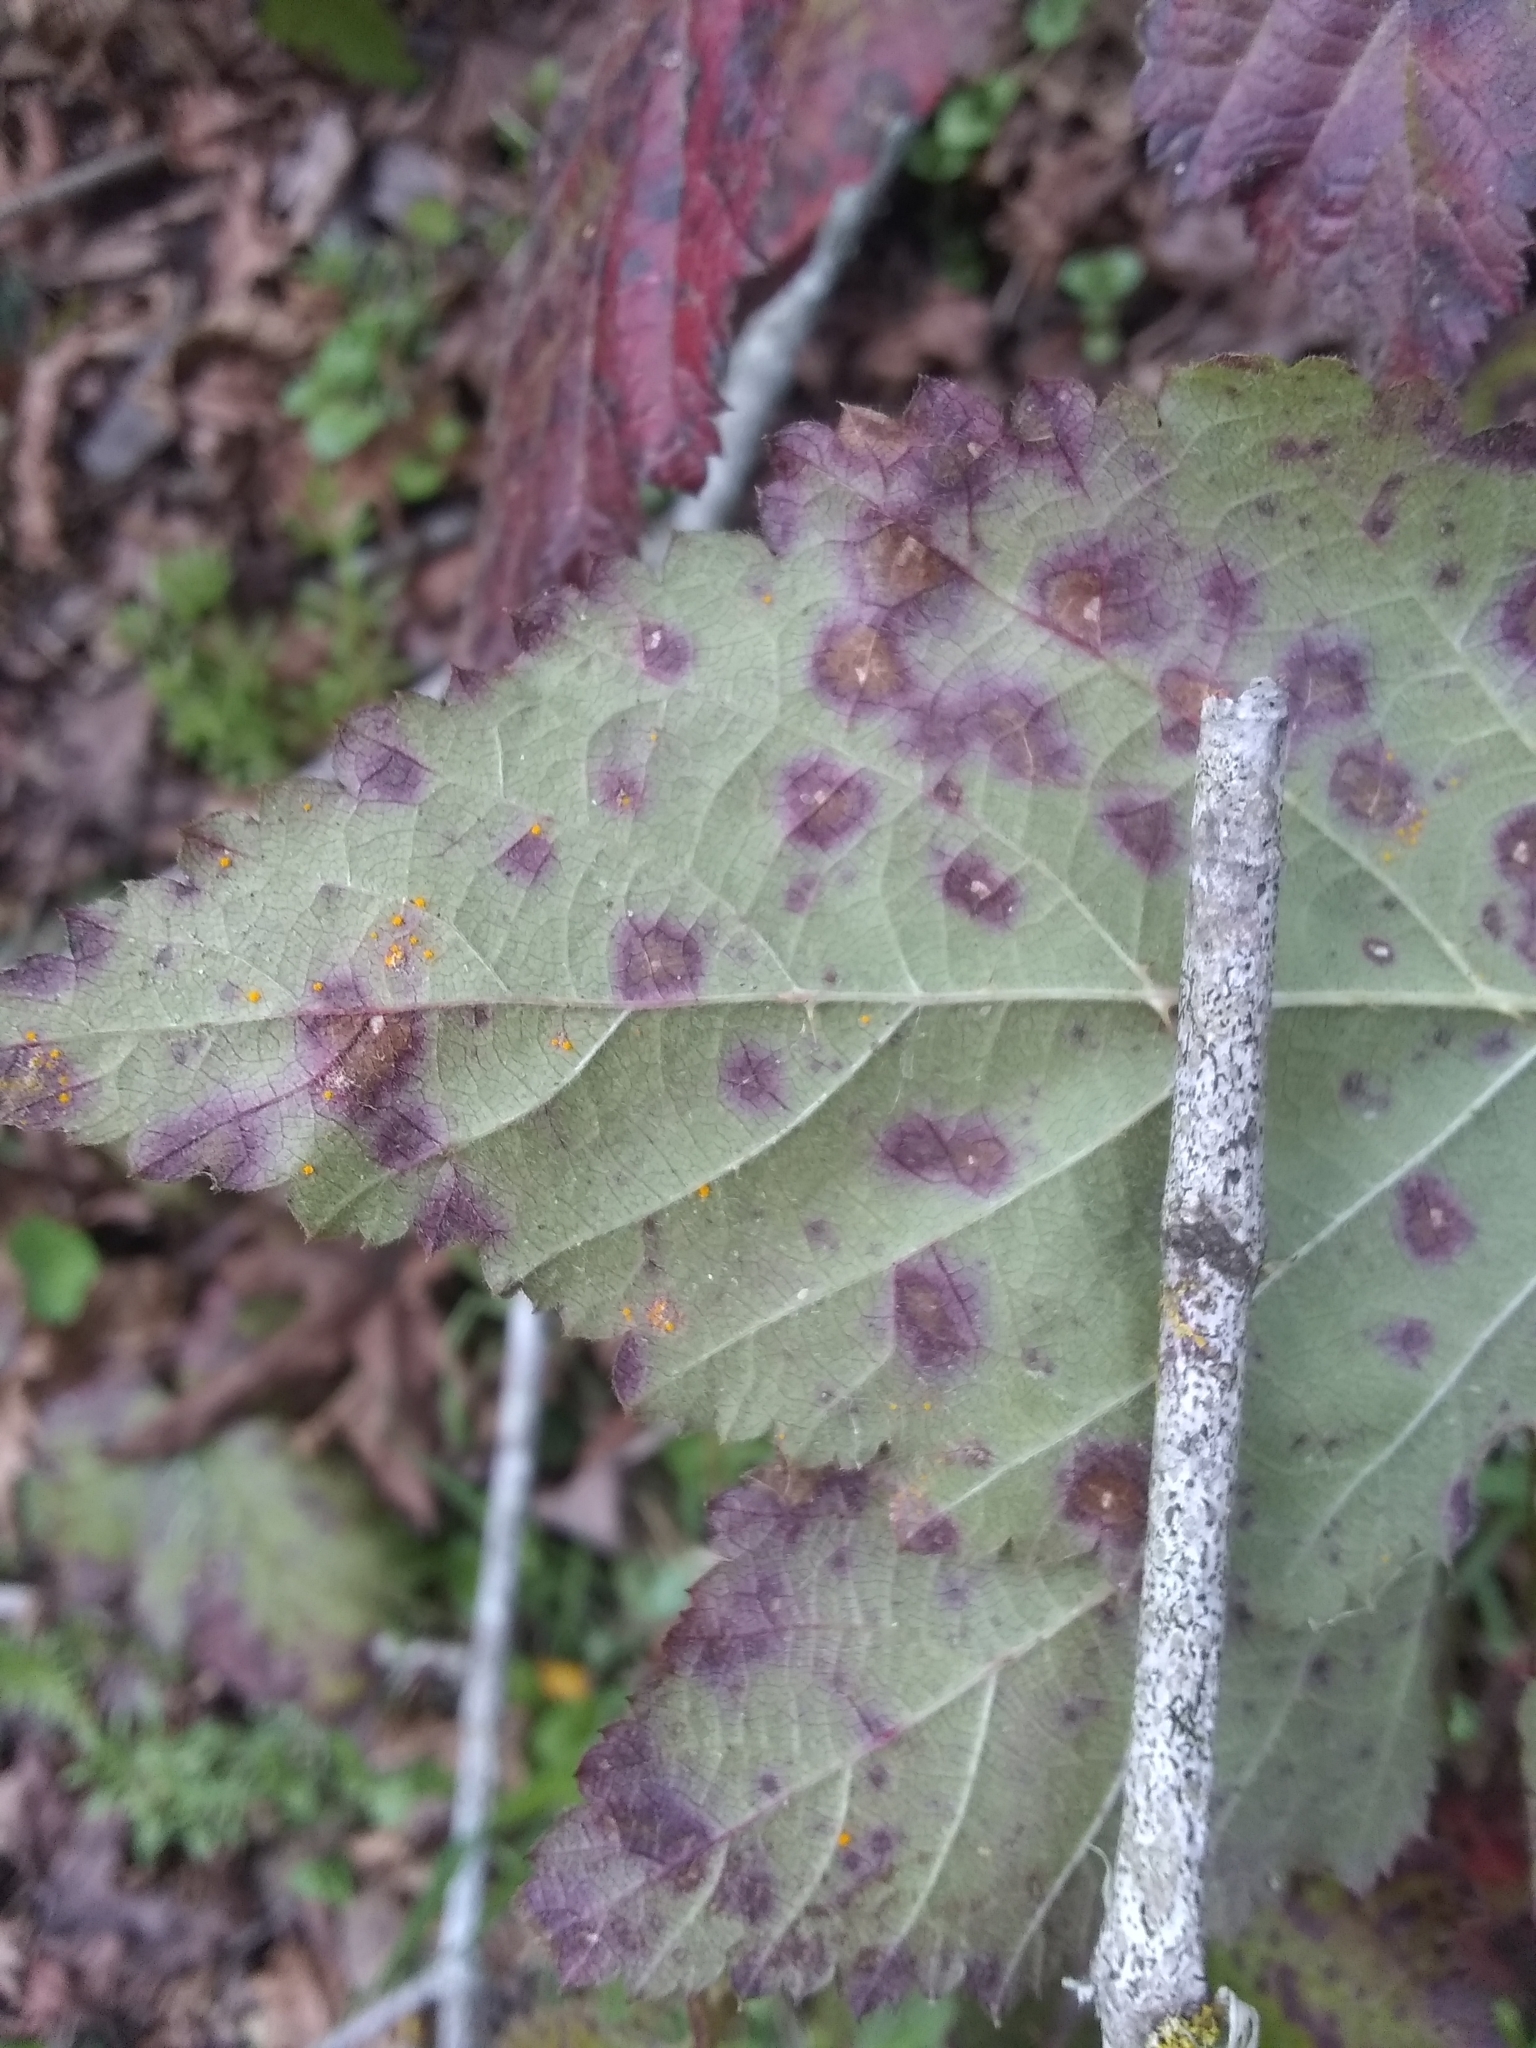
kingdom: Fungi
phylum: Basidiomycota
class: Pucciniomycetes
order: Pucciniales
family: Phragmidiaceae
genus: Phragmidium
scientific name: Phragmidium violaceum
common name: Violet bramble rust
